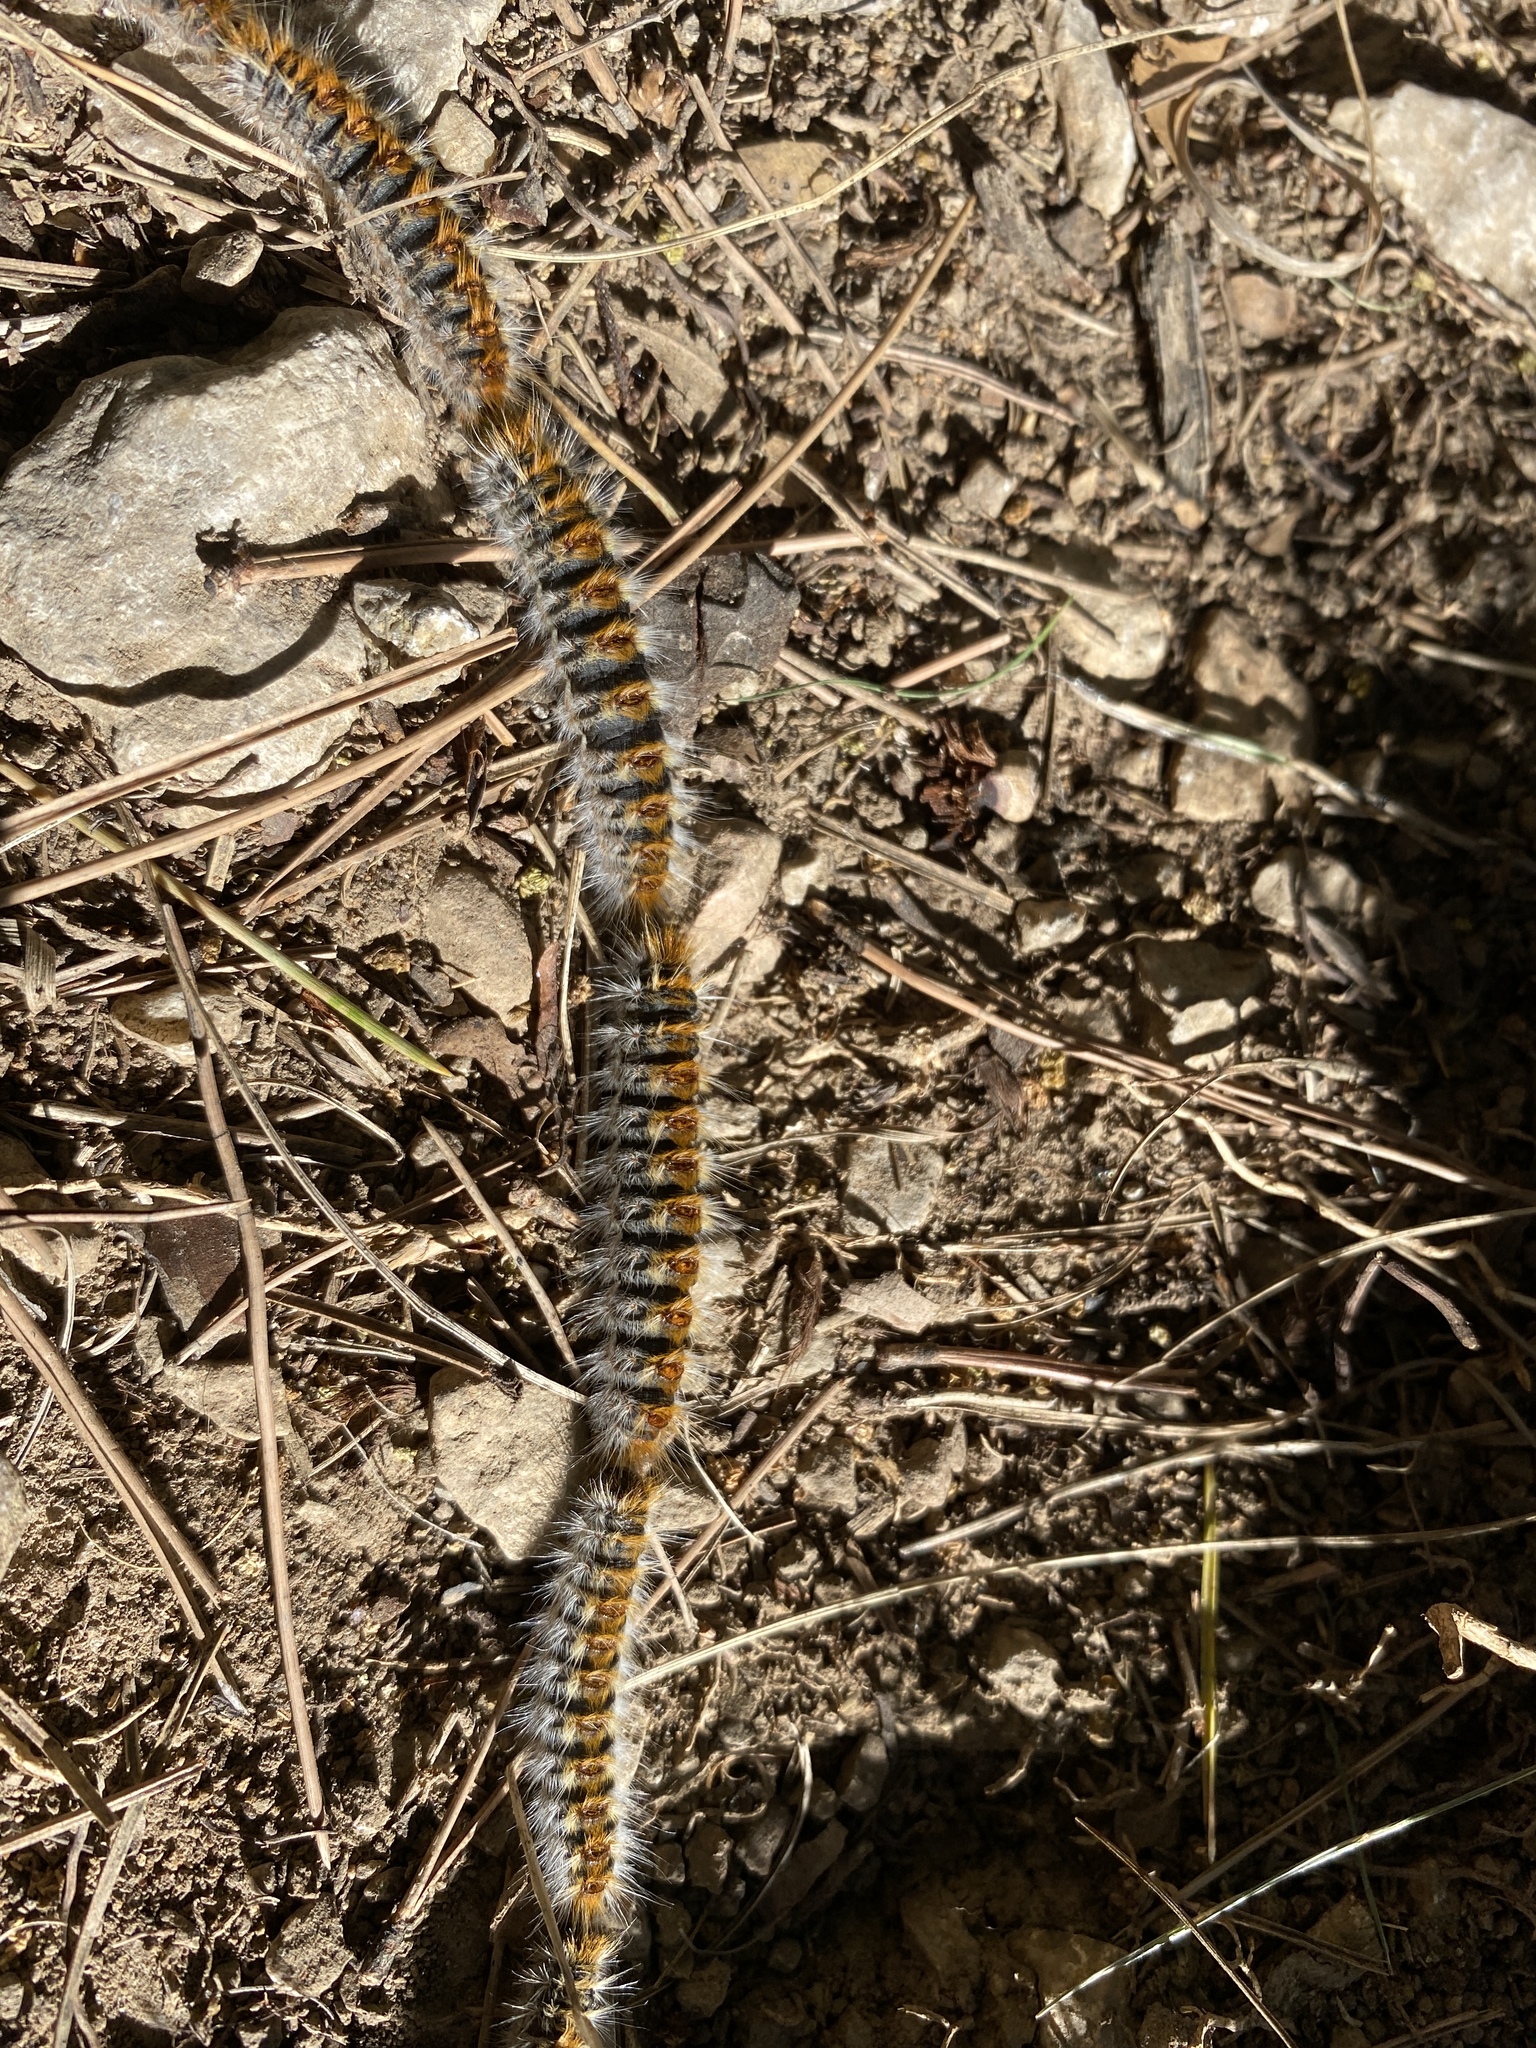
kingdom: Animalia
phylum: Arthropoda
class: Insecta
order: Lepidoptera
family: Notodontidae
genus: Thaumetopoea
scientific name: Thaumetopoea pityocampa
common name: Pine processionary
